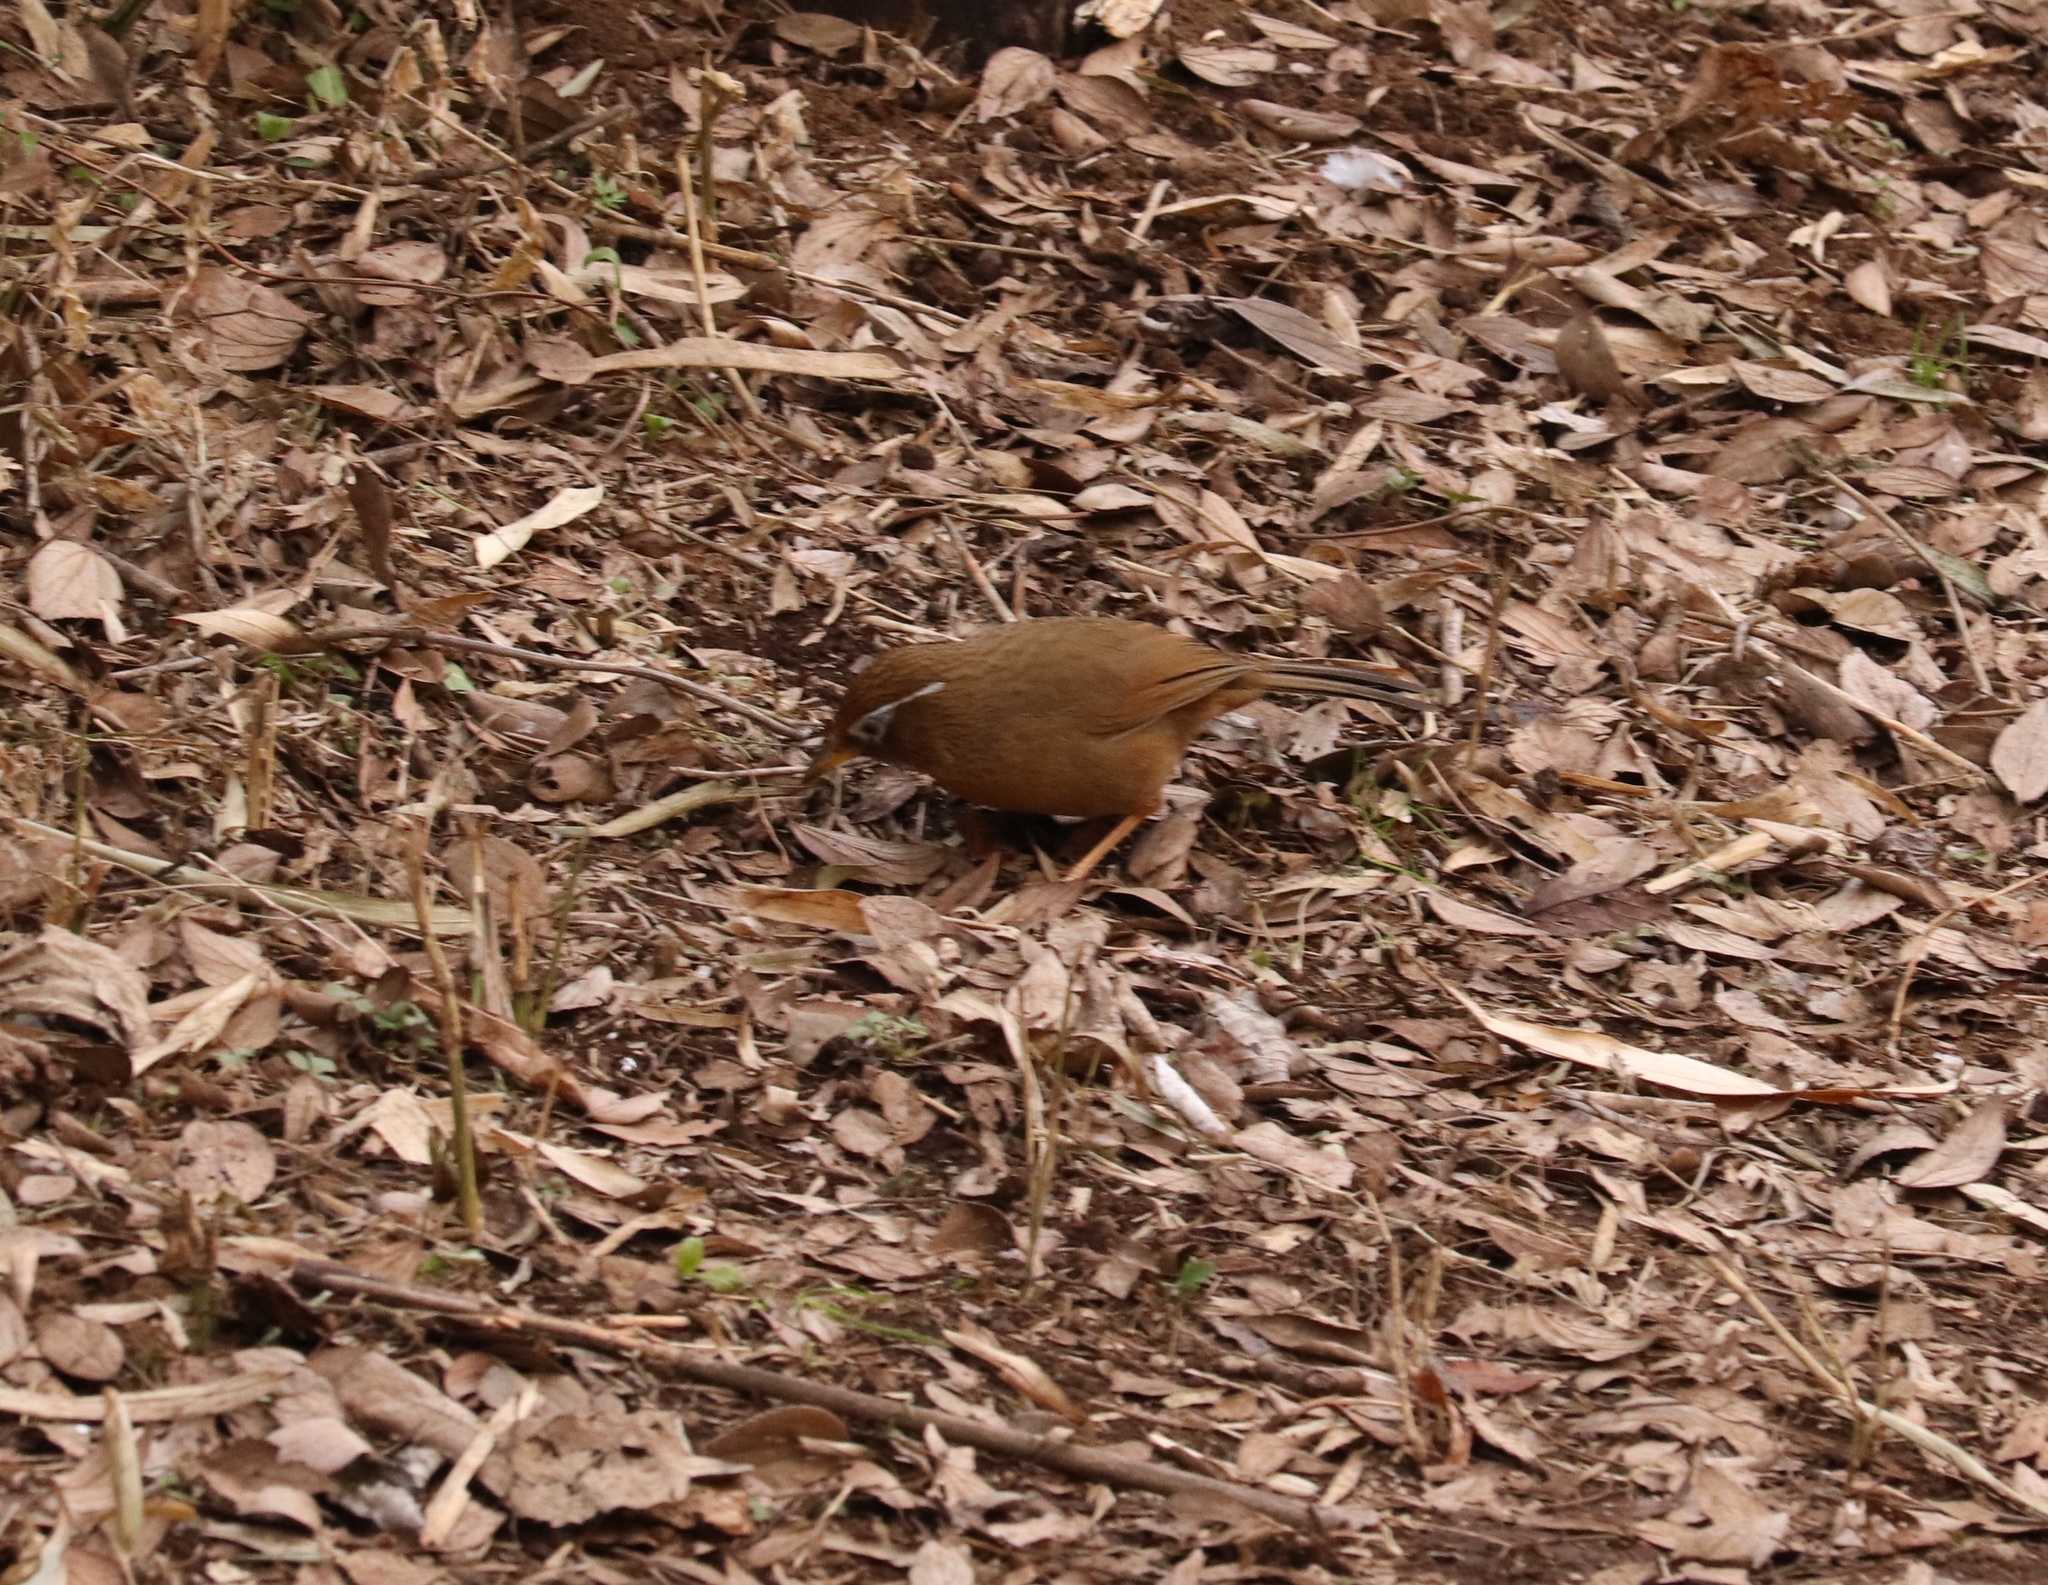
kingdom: Animalia
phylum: Chordata
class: Aves
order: Passeriformes
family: Leiothrichidae
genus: Garrulax
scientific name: Garrulax canorus
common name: Chinese hwamei
